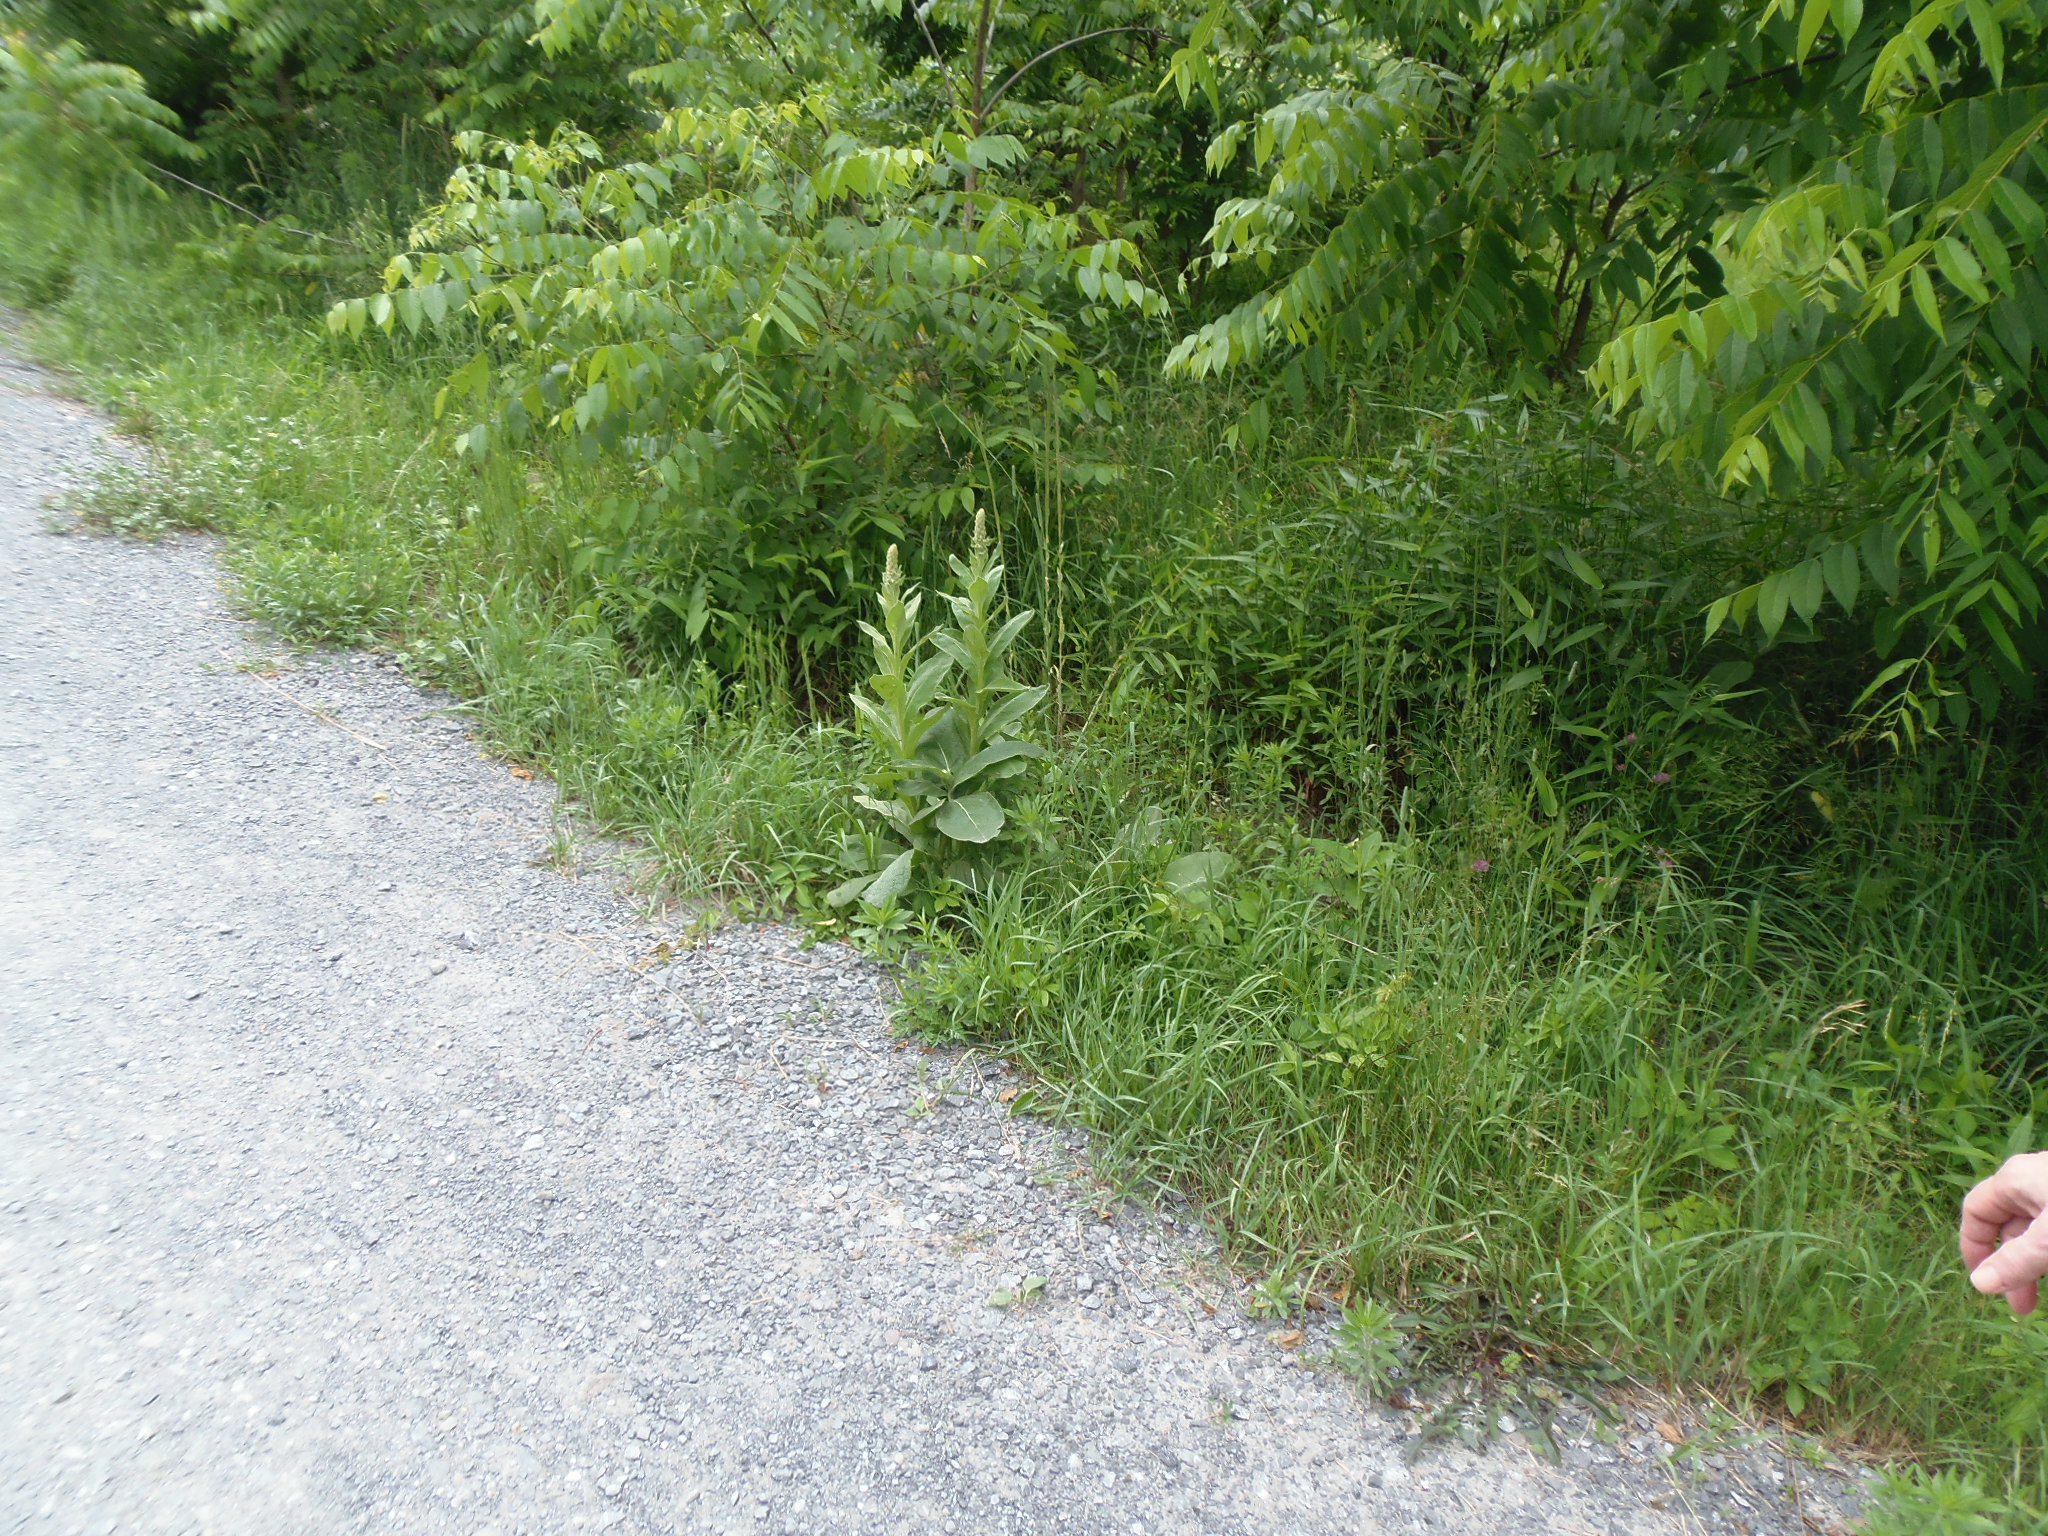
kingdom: Plantae
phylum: Tracheophyta
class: Magnoliopsida
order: Lamiales
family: Scrophulariaceae
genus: Verbascum
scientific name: Verbascum thapsus
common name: Common mullein
